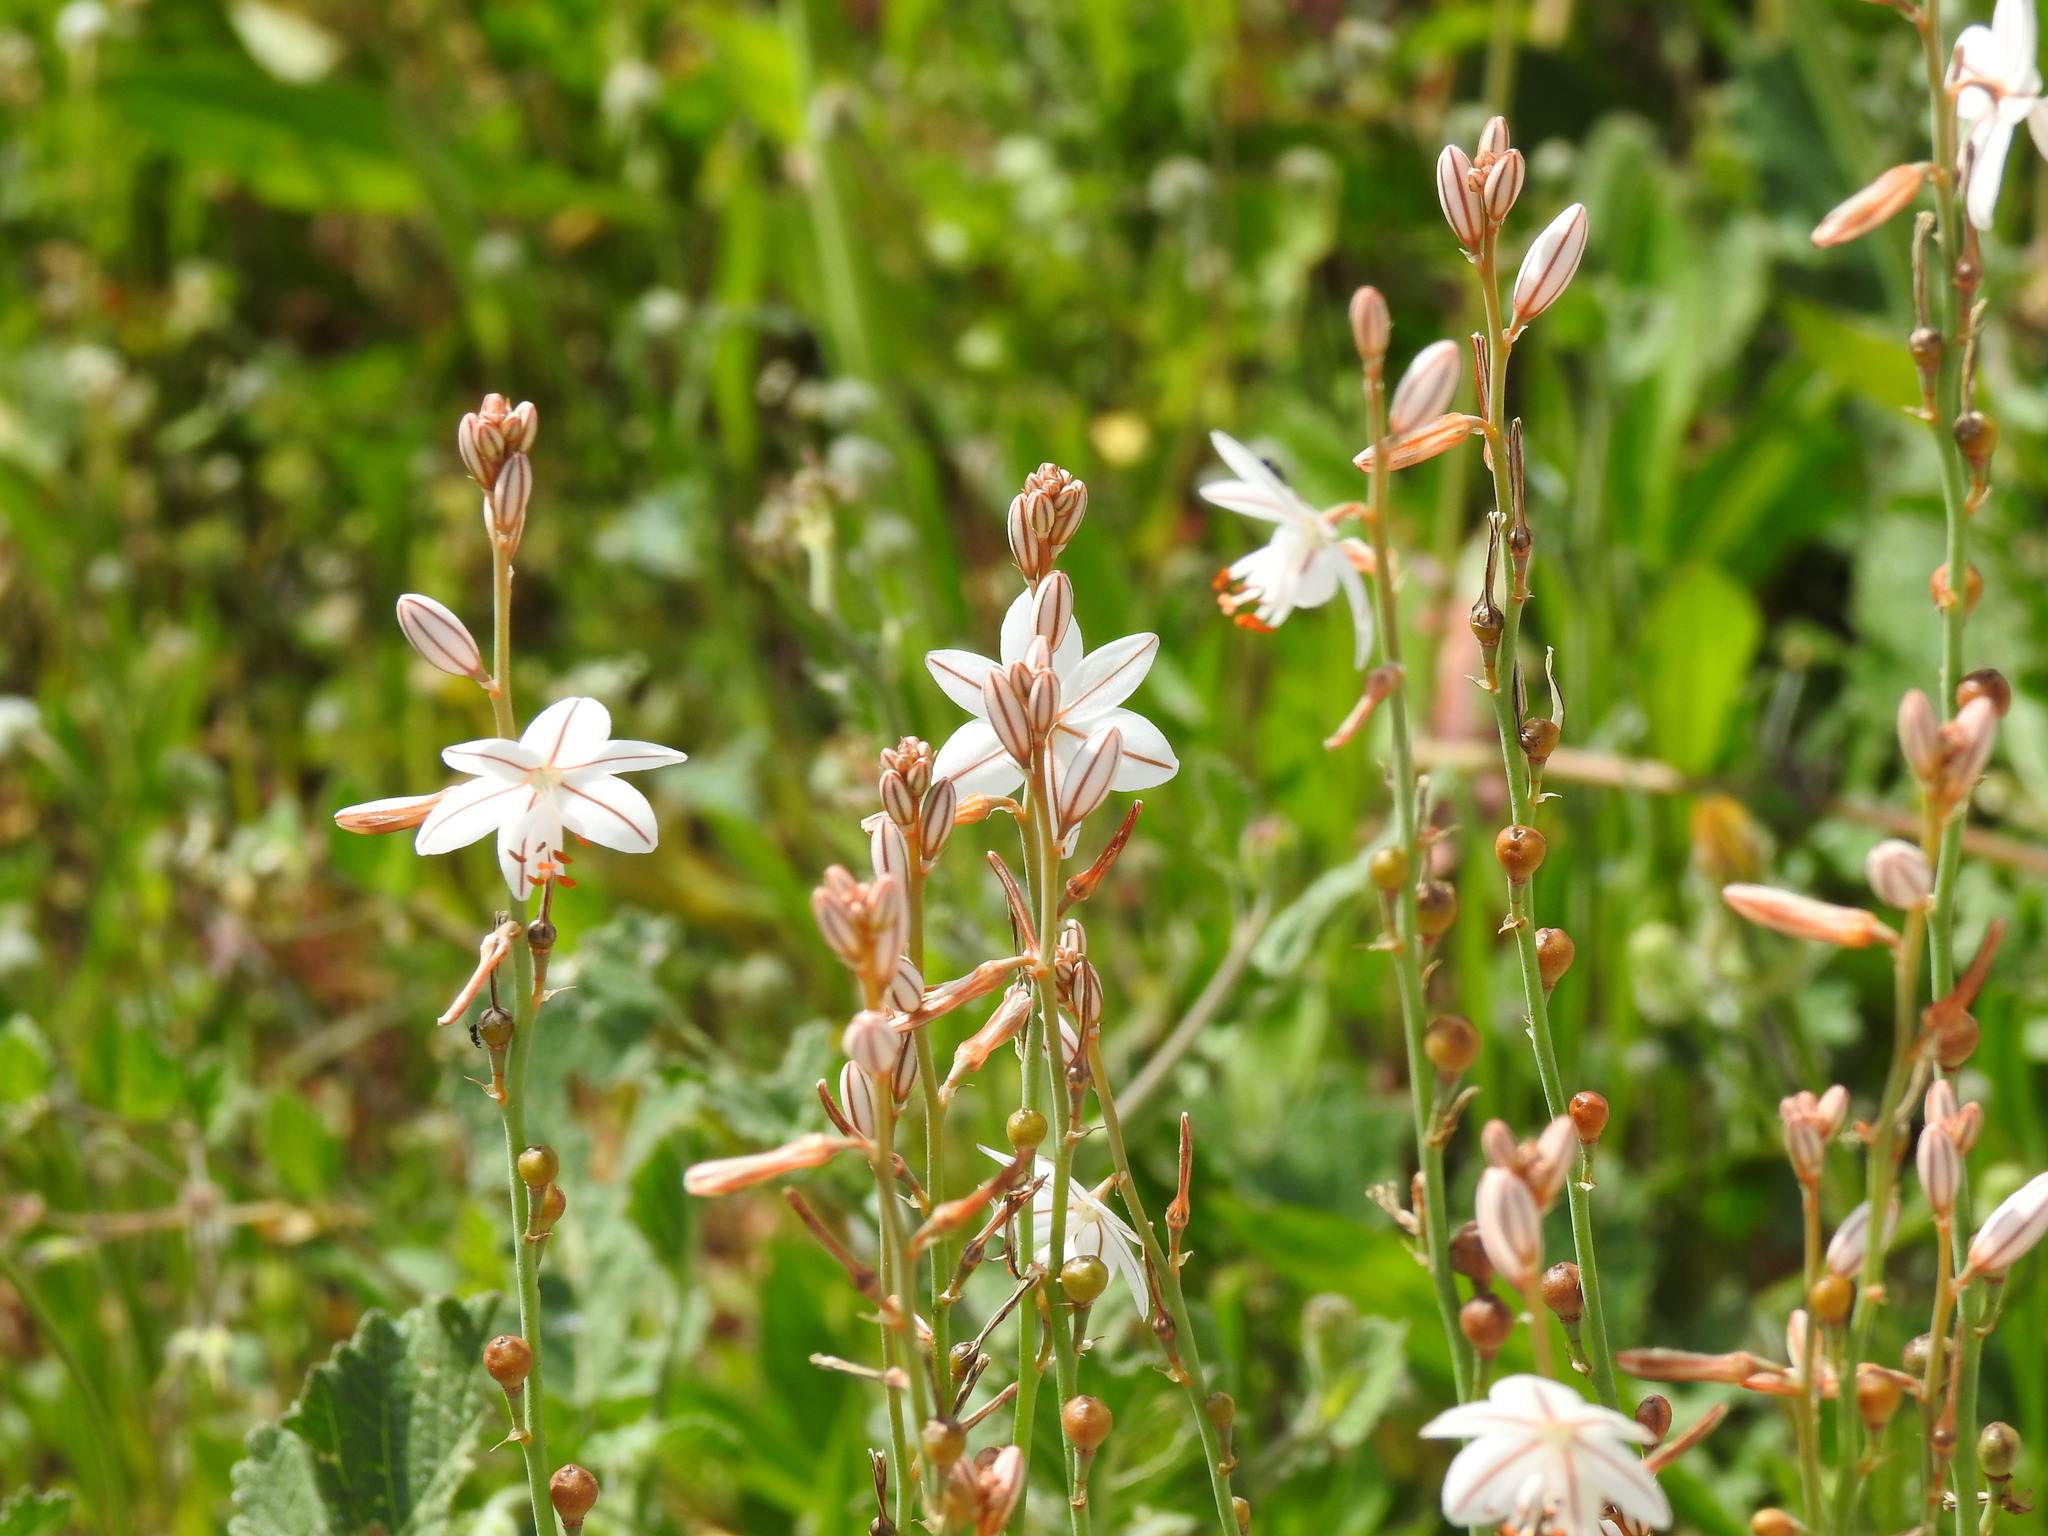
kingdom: Plantae
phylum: Tracheophyta
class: Liliopsida
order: Asparagales
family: Asphodelaceae
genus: Asphodelus
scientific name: Asphodelus fistulosus
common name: Onionweed
